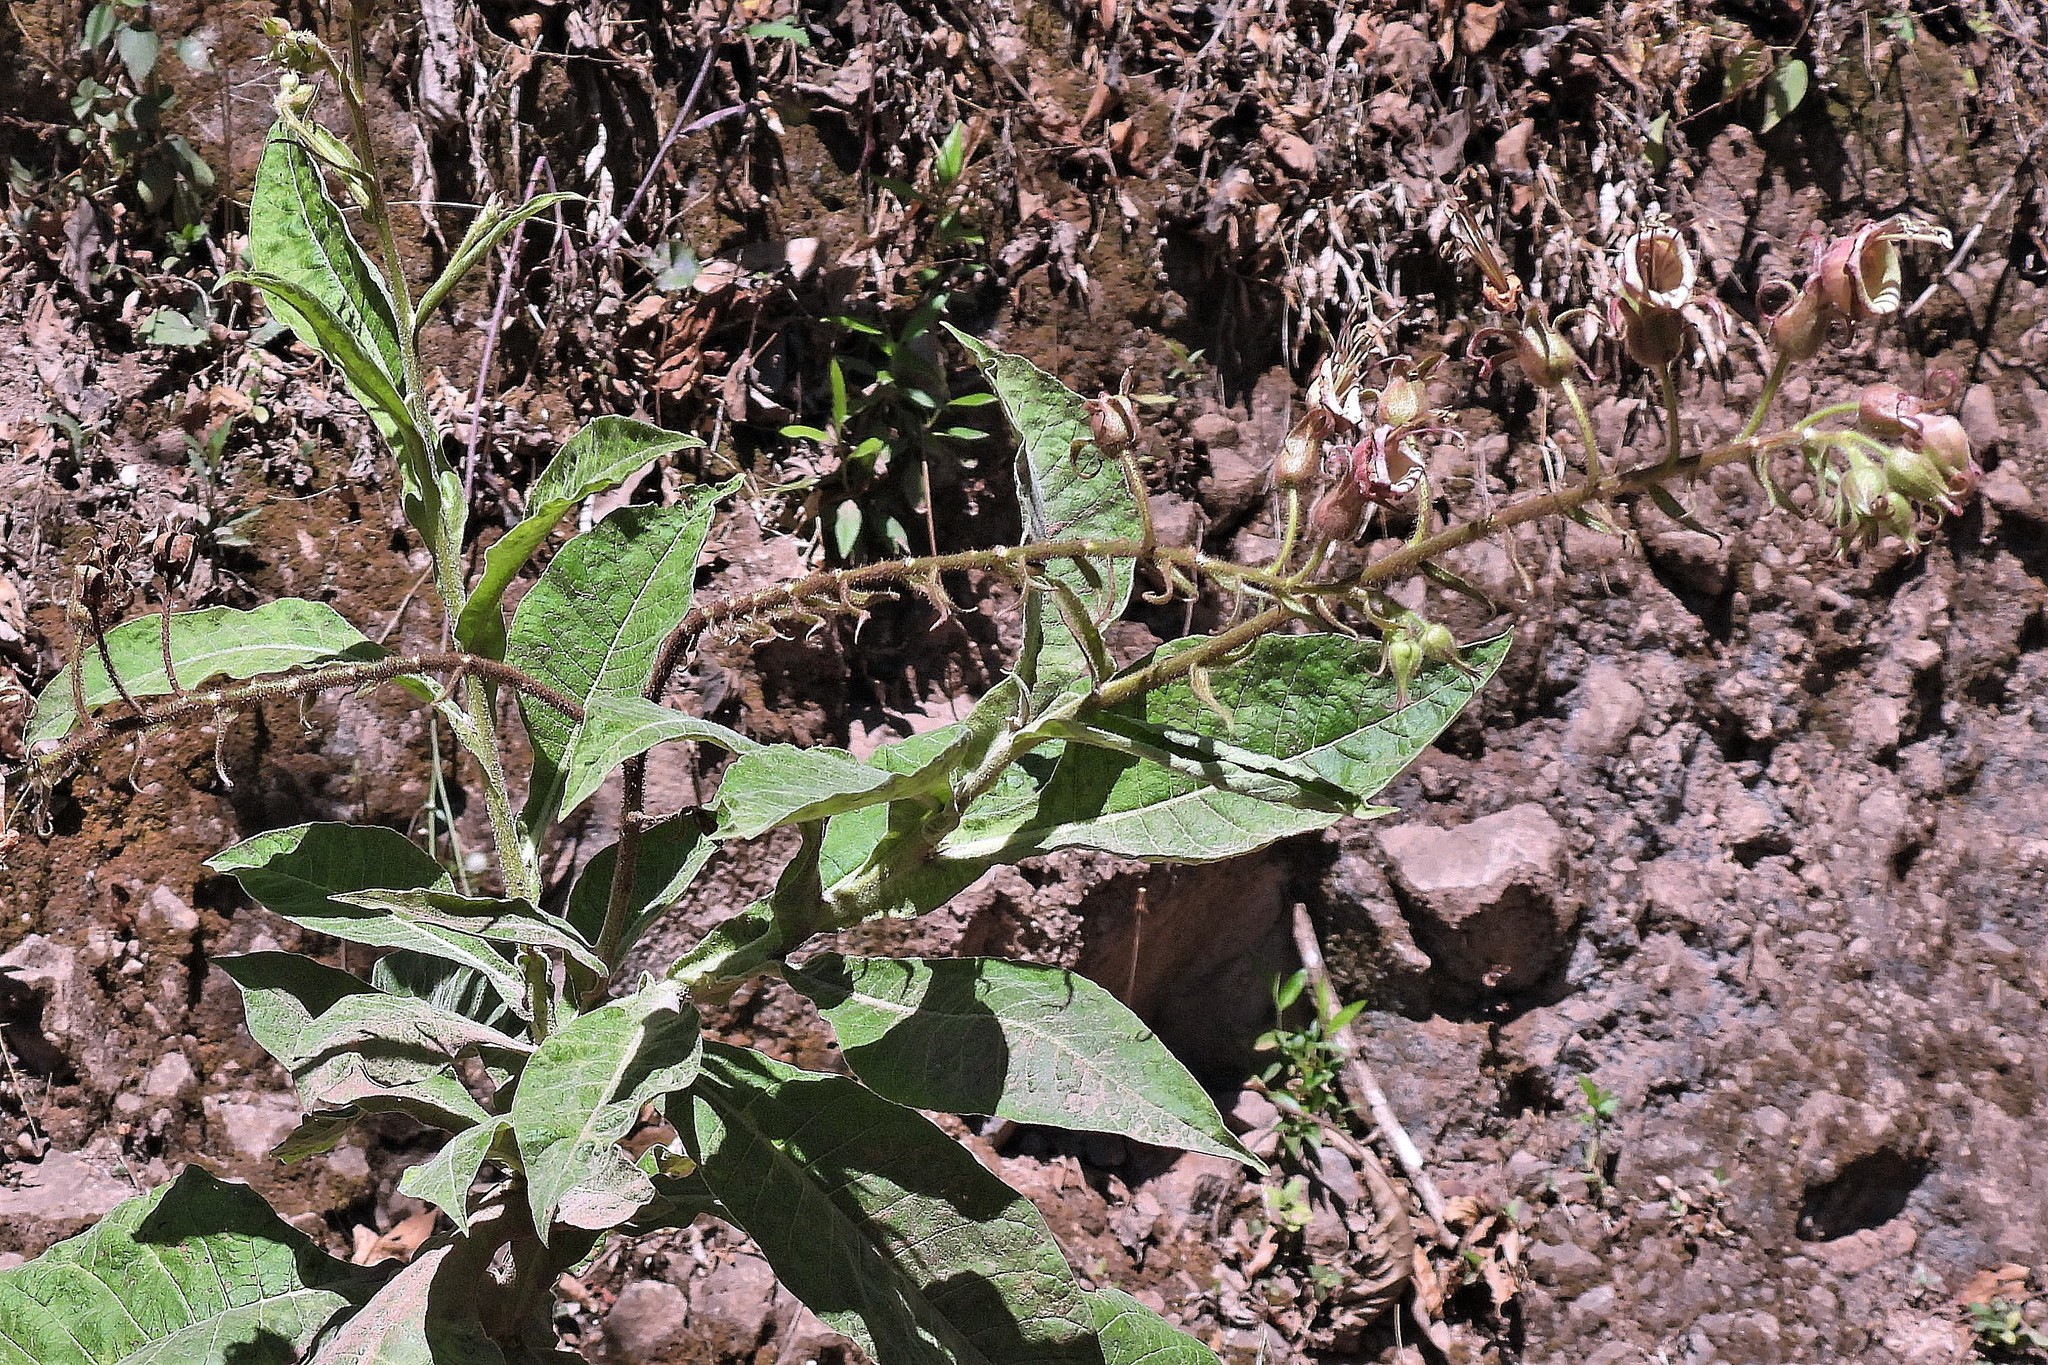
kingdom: Plantae
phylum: Tracheophyta
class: Magnoliopsida
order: Solanales
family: Solanaceae
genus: Nicotiana
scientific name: Nicotiana otophora
